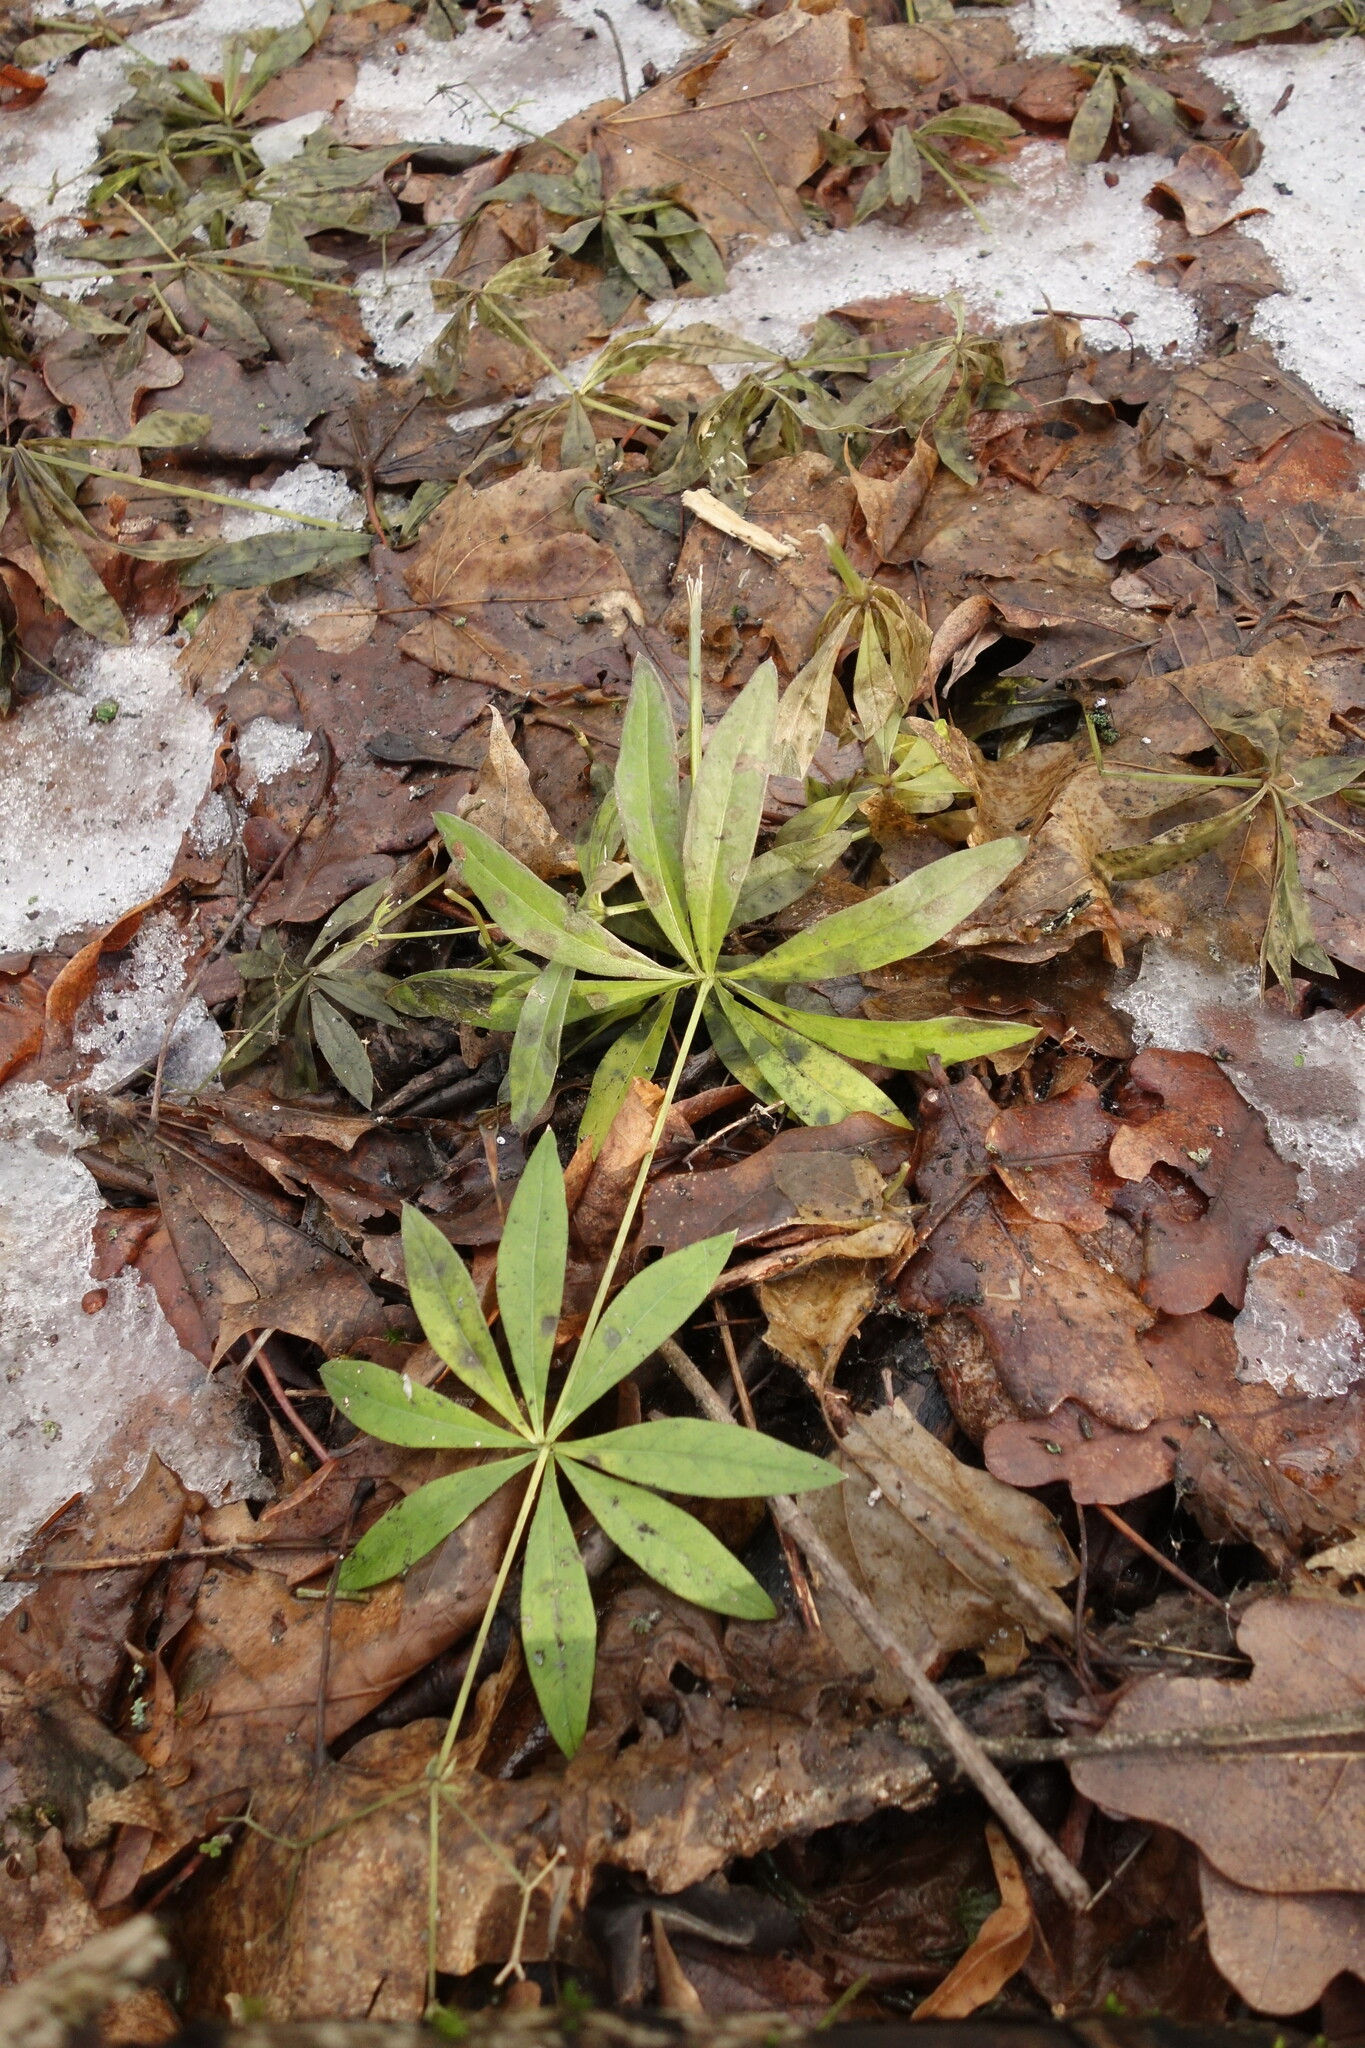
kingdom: Plantae
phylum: Tracheophyta
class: Magnoliopsida
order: Gentianales
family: Rubiaceae
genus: Galium
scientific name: Galium odoratum
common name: Sweet woodruff
